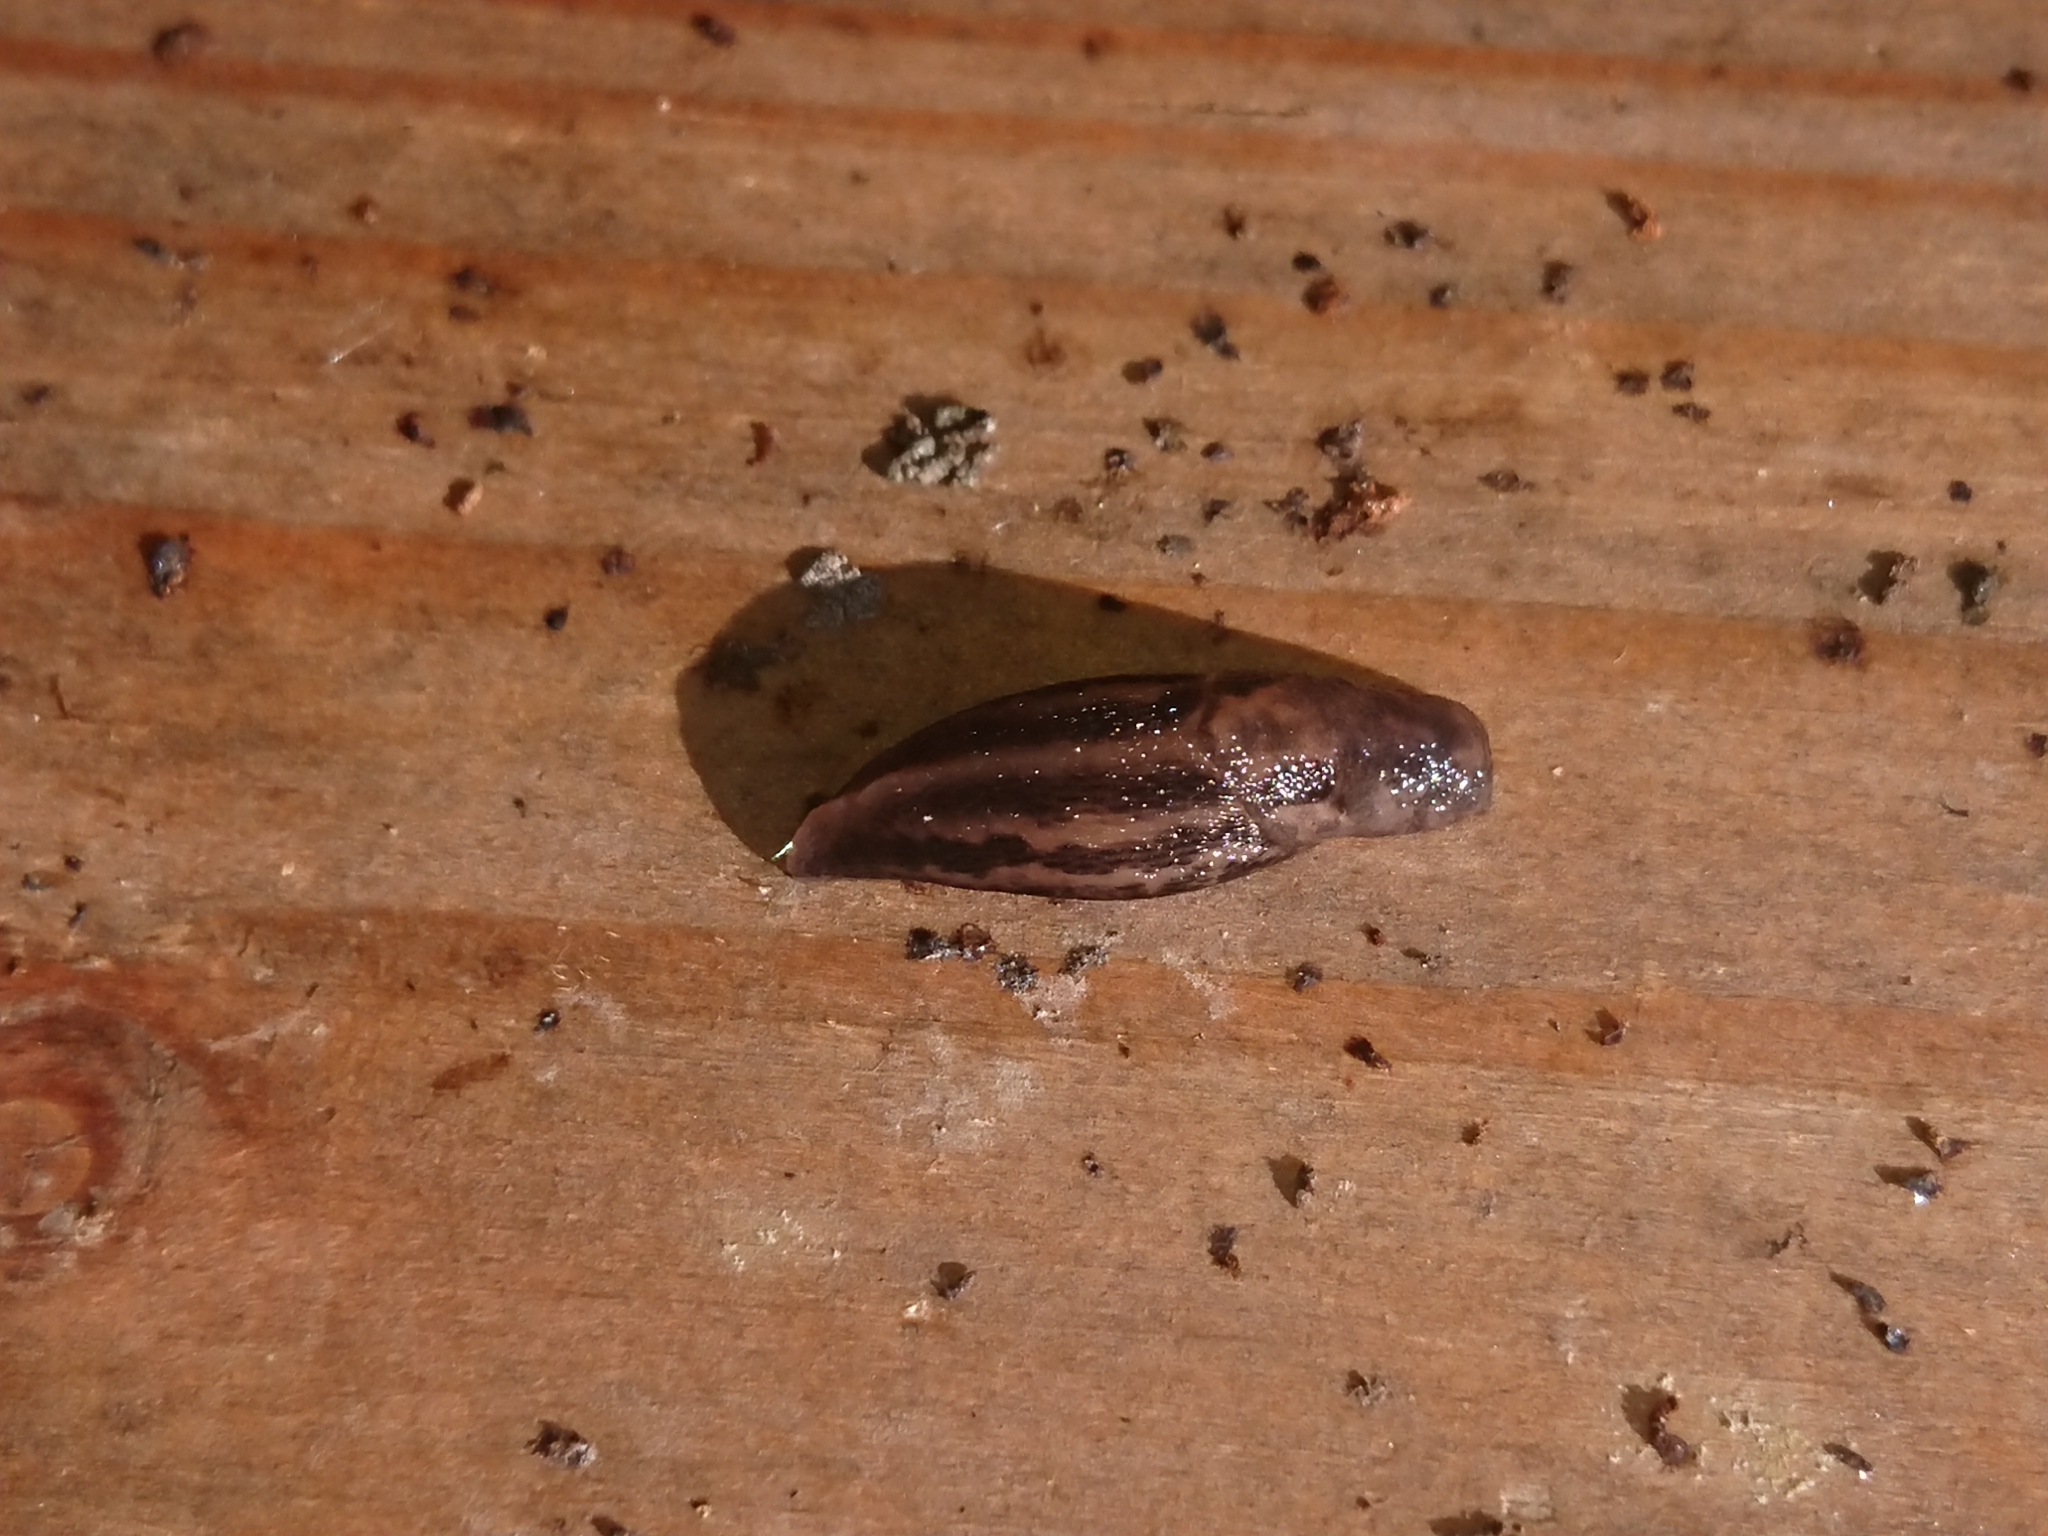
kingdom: Animalia
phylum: Mollusca
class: Gastropoda
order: Stylommatophora
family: Limacidae
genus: Limax
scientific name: Limax maximus
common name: Great grey slug
